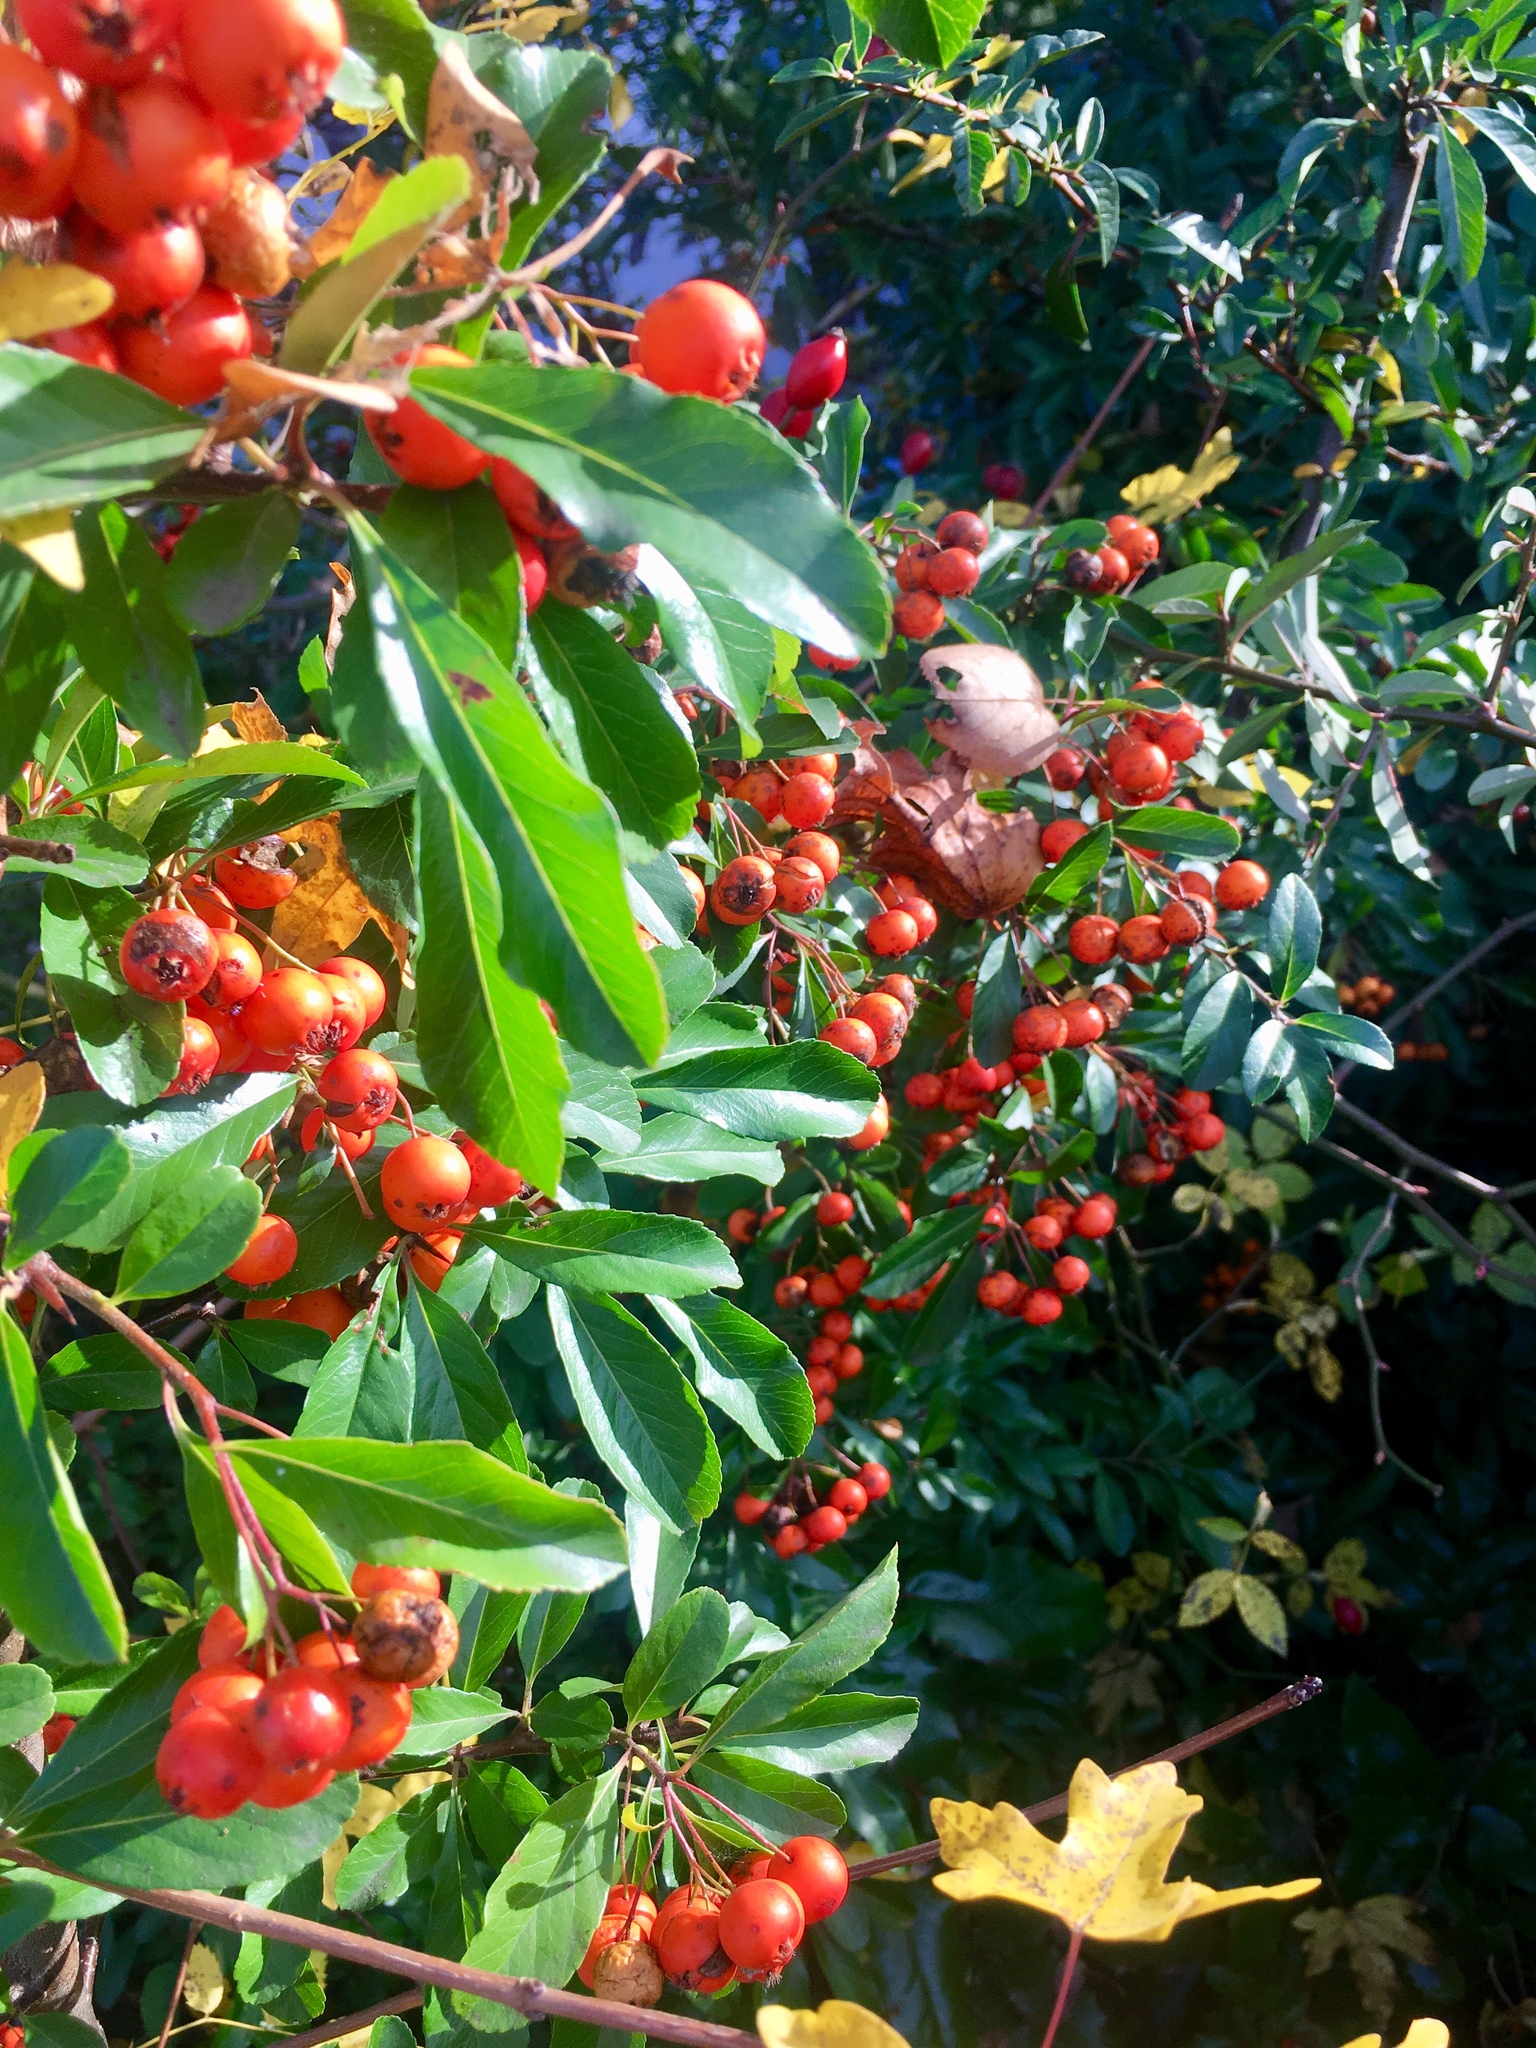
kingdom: Plantae
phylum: Tracheophyta
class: Magnoliopsida
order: Rosales
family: Rosaceae
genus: Pyracantha
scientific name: Pyracantha coccinea
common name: Firethorn
